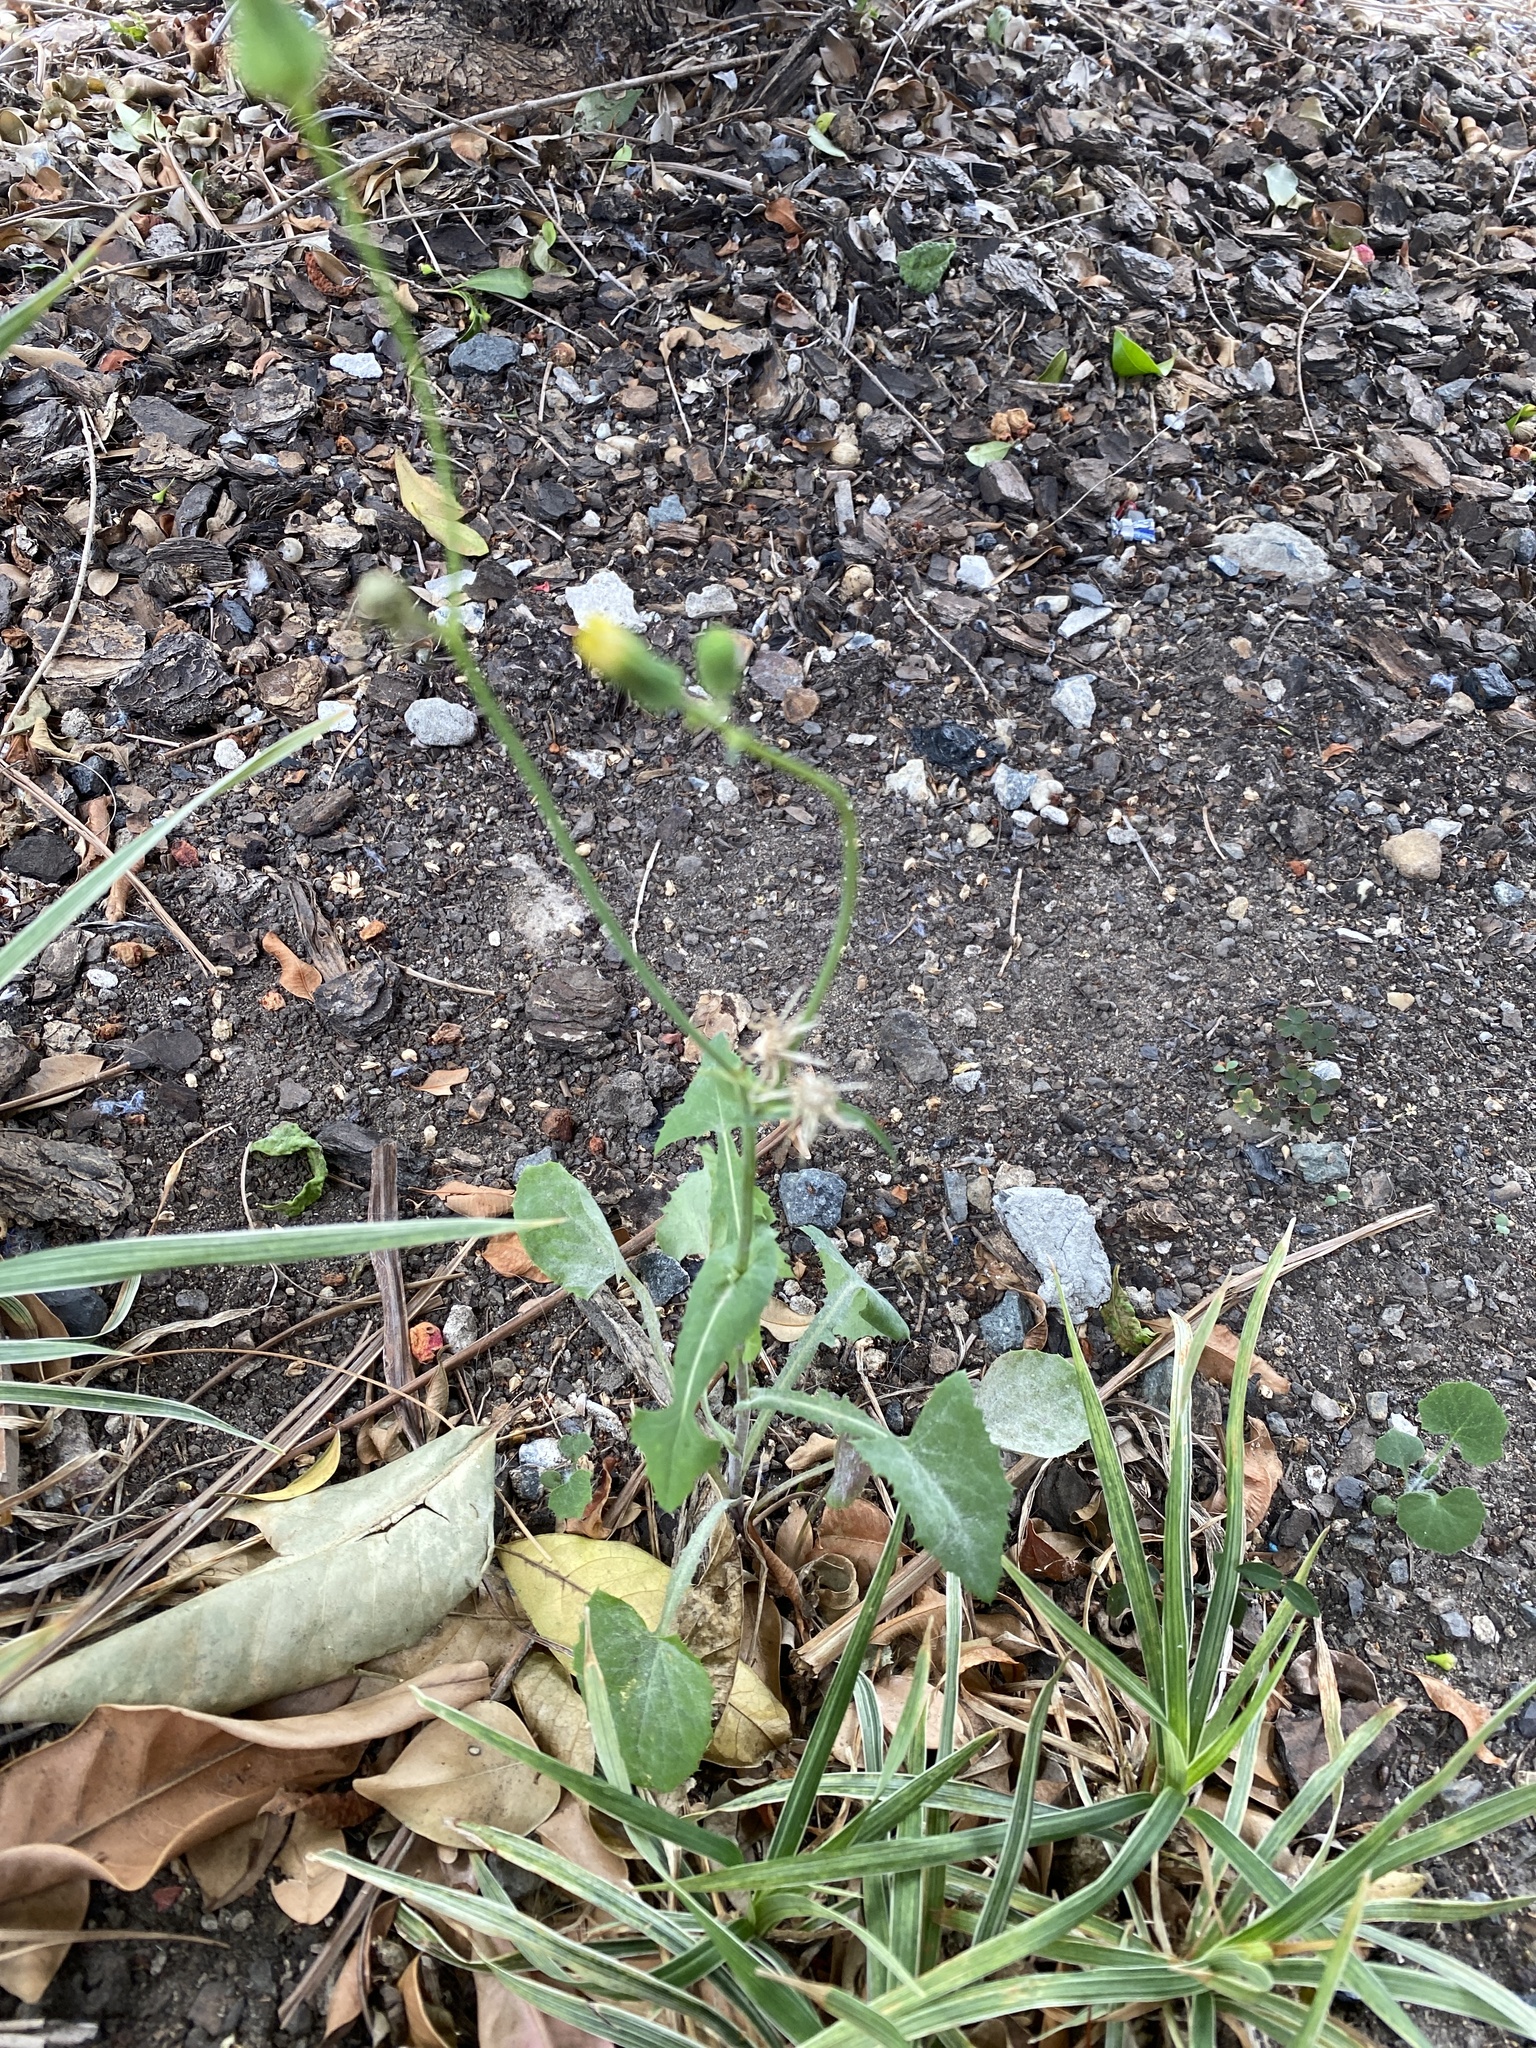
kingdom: Plantae
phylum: Tracheophyta
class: Magnoliopsida
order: Asterales
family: Asteraceae
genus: Sonchus
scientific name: Sonchus oleraceus
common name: Common sowthistle
